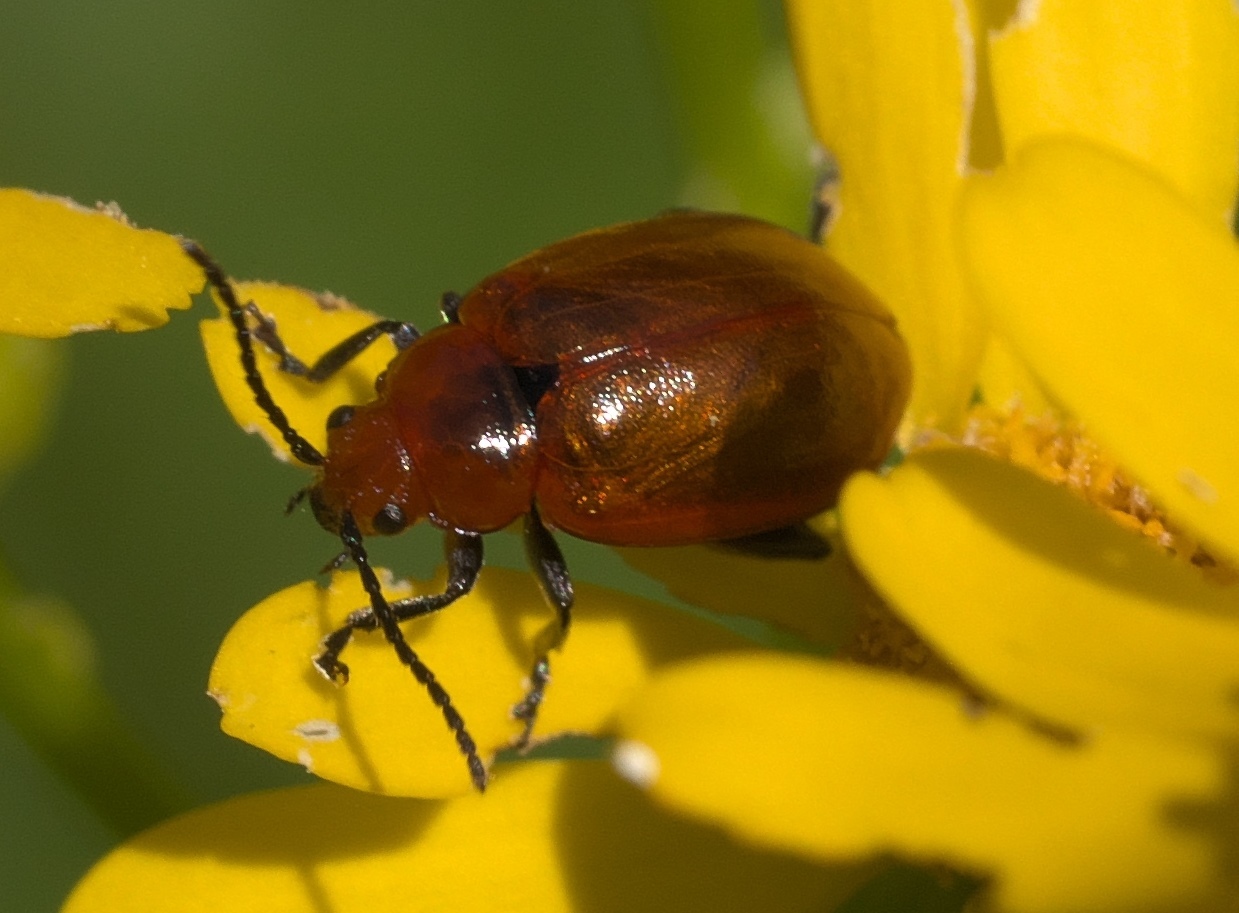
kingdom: Animalia
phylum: Arthropoda
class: Insecta
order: Coleoptera
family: Chrysomelidae
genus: Strabala
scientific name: Strabala rufa
